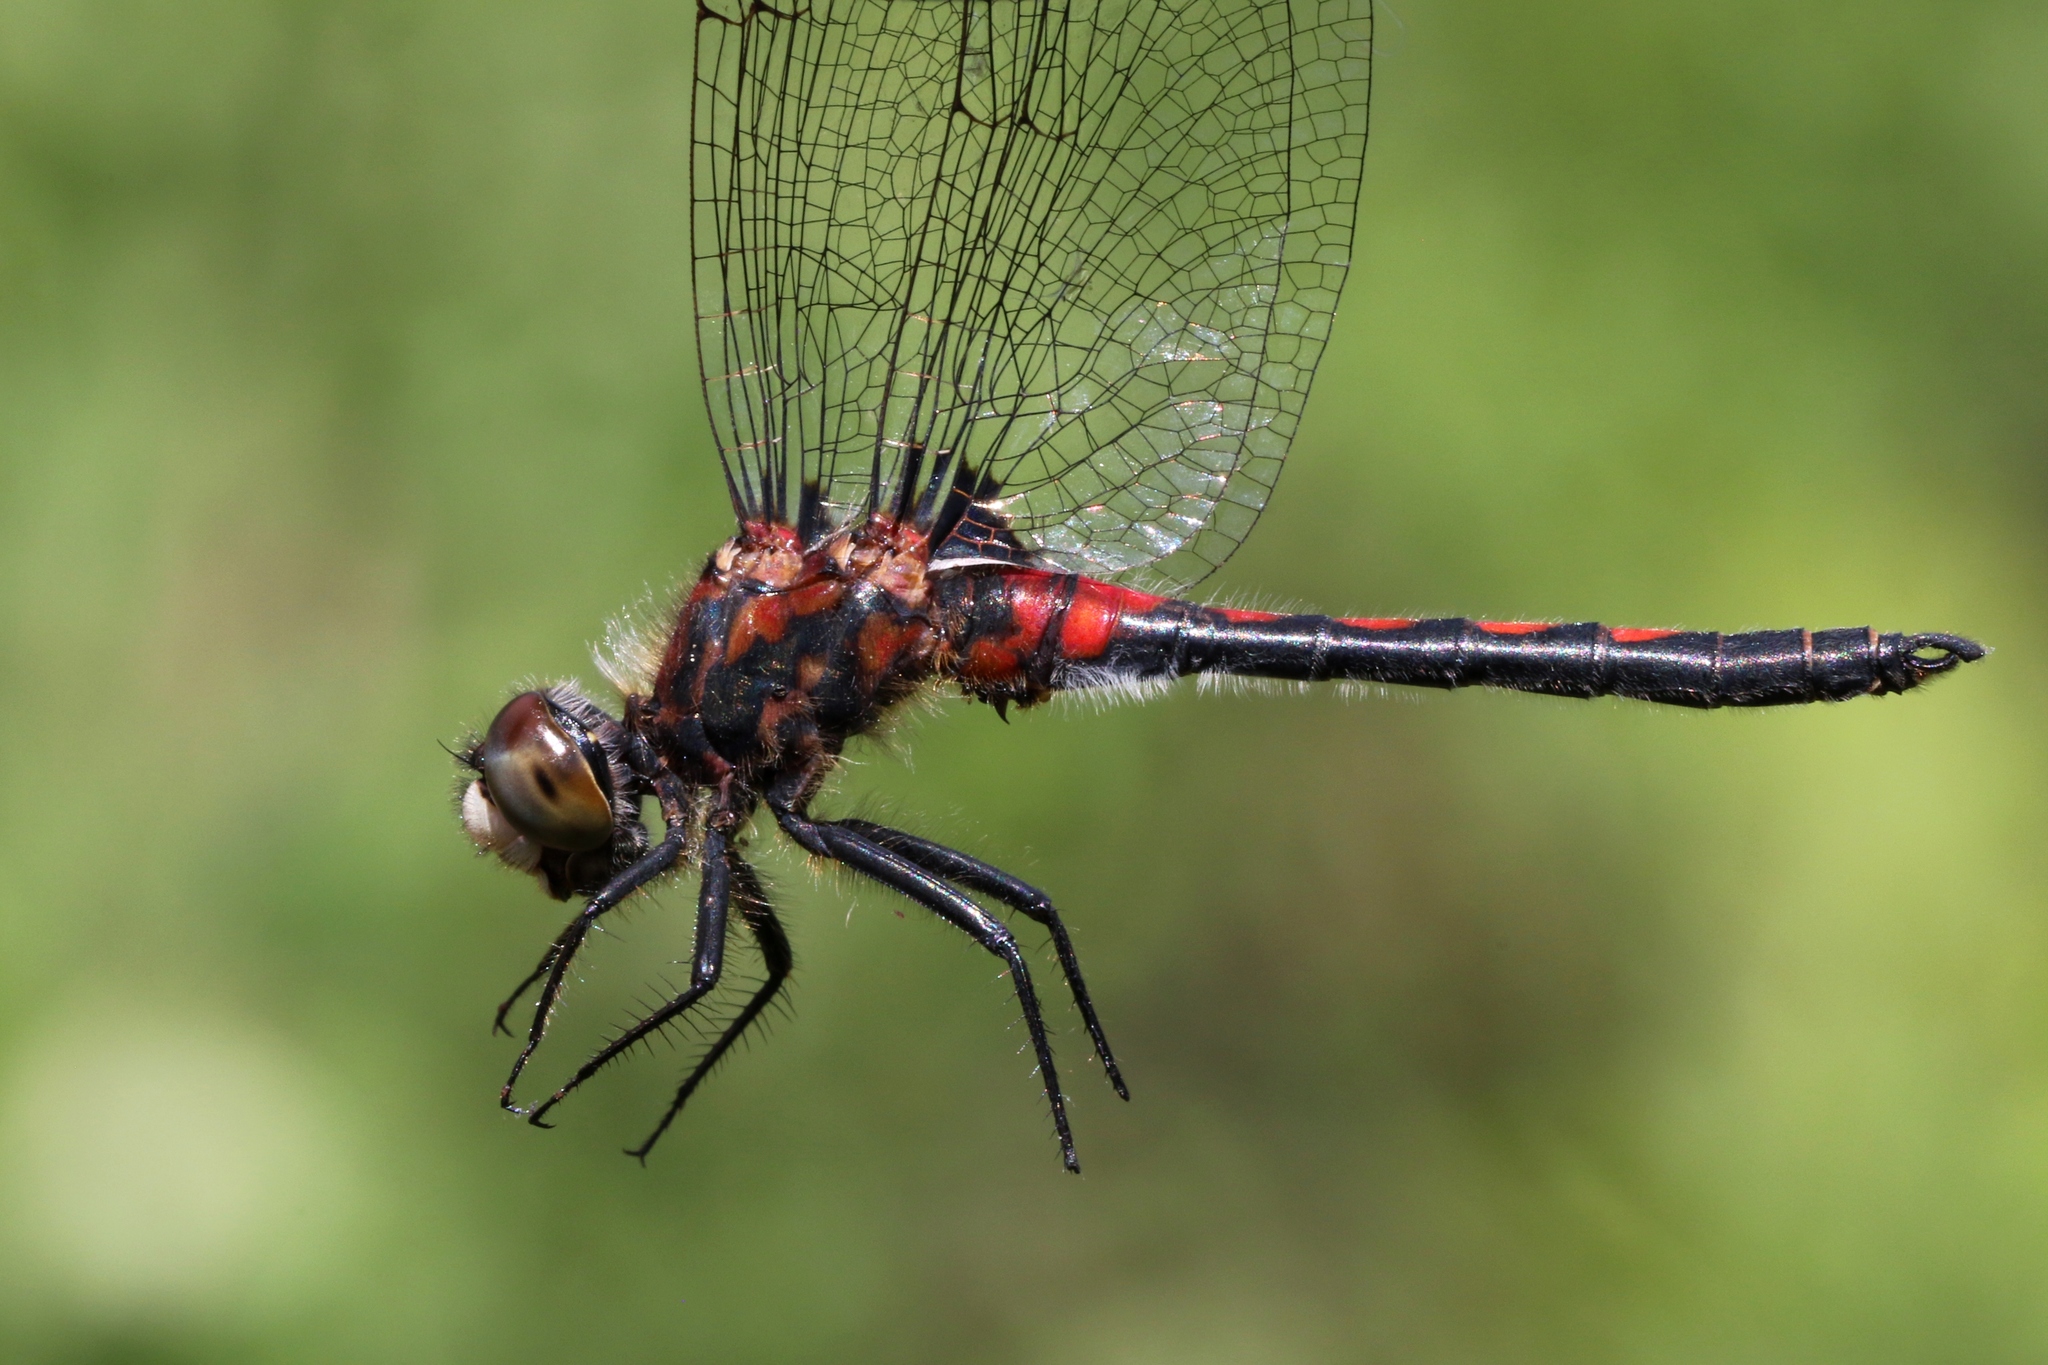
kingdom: Animalia
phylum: Arthropoda
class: Insecta
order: Odonata
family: Libellulidae
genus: Leucorrhinia
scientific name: Leucorrhinia hudsonica
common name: Hudsonian whiteface
